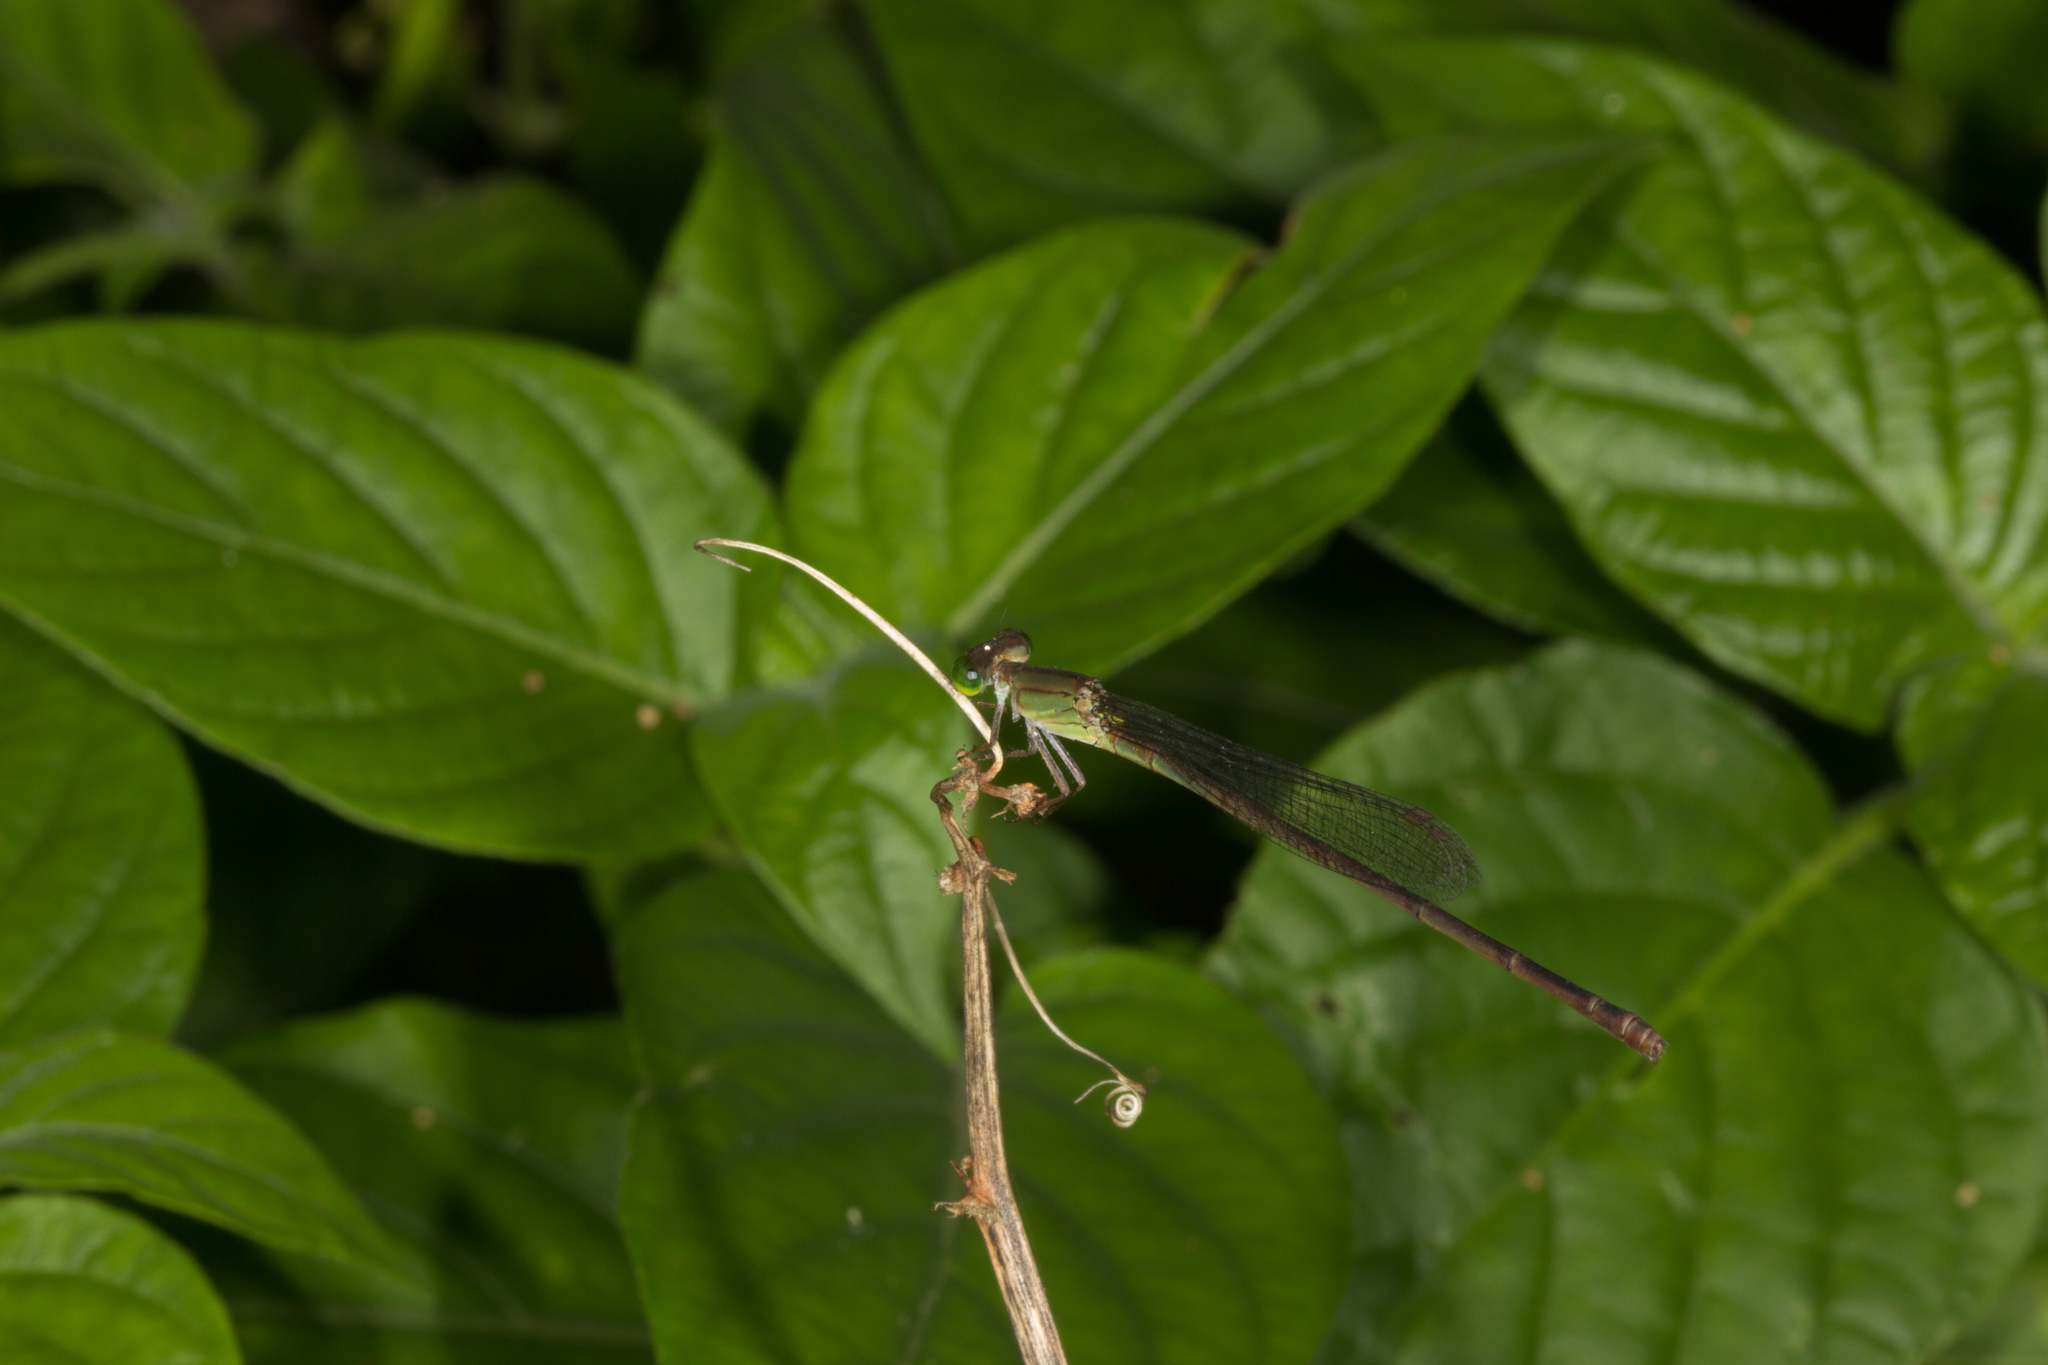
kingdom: Animalia
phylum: Arthropoda
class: Insecta
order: Odonata
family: Coenagrionidae
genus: Ceriagrion
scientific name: Ceriagrion glabrum
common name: Common pond damsel
